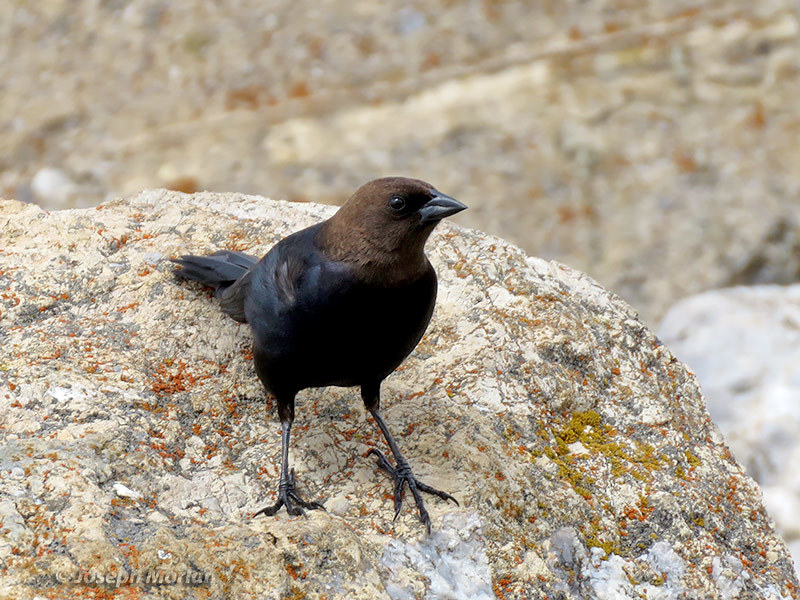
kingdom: Animalia
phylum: Chordata
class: Aves
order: Passeriformes
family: Icteridae
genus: Molothrus
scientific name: Molothrus ater
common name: Brown-headed cowbird
